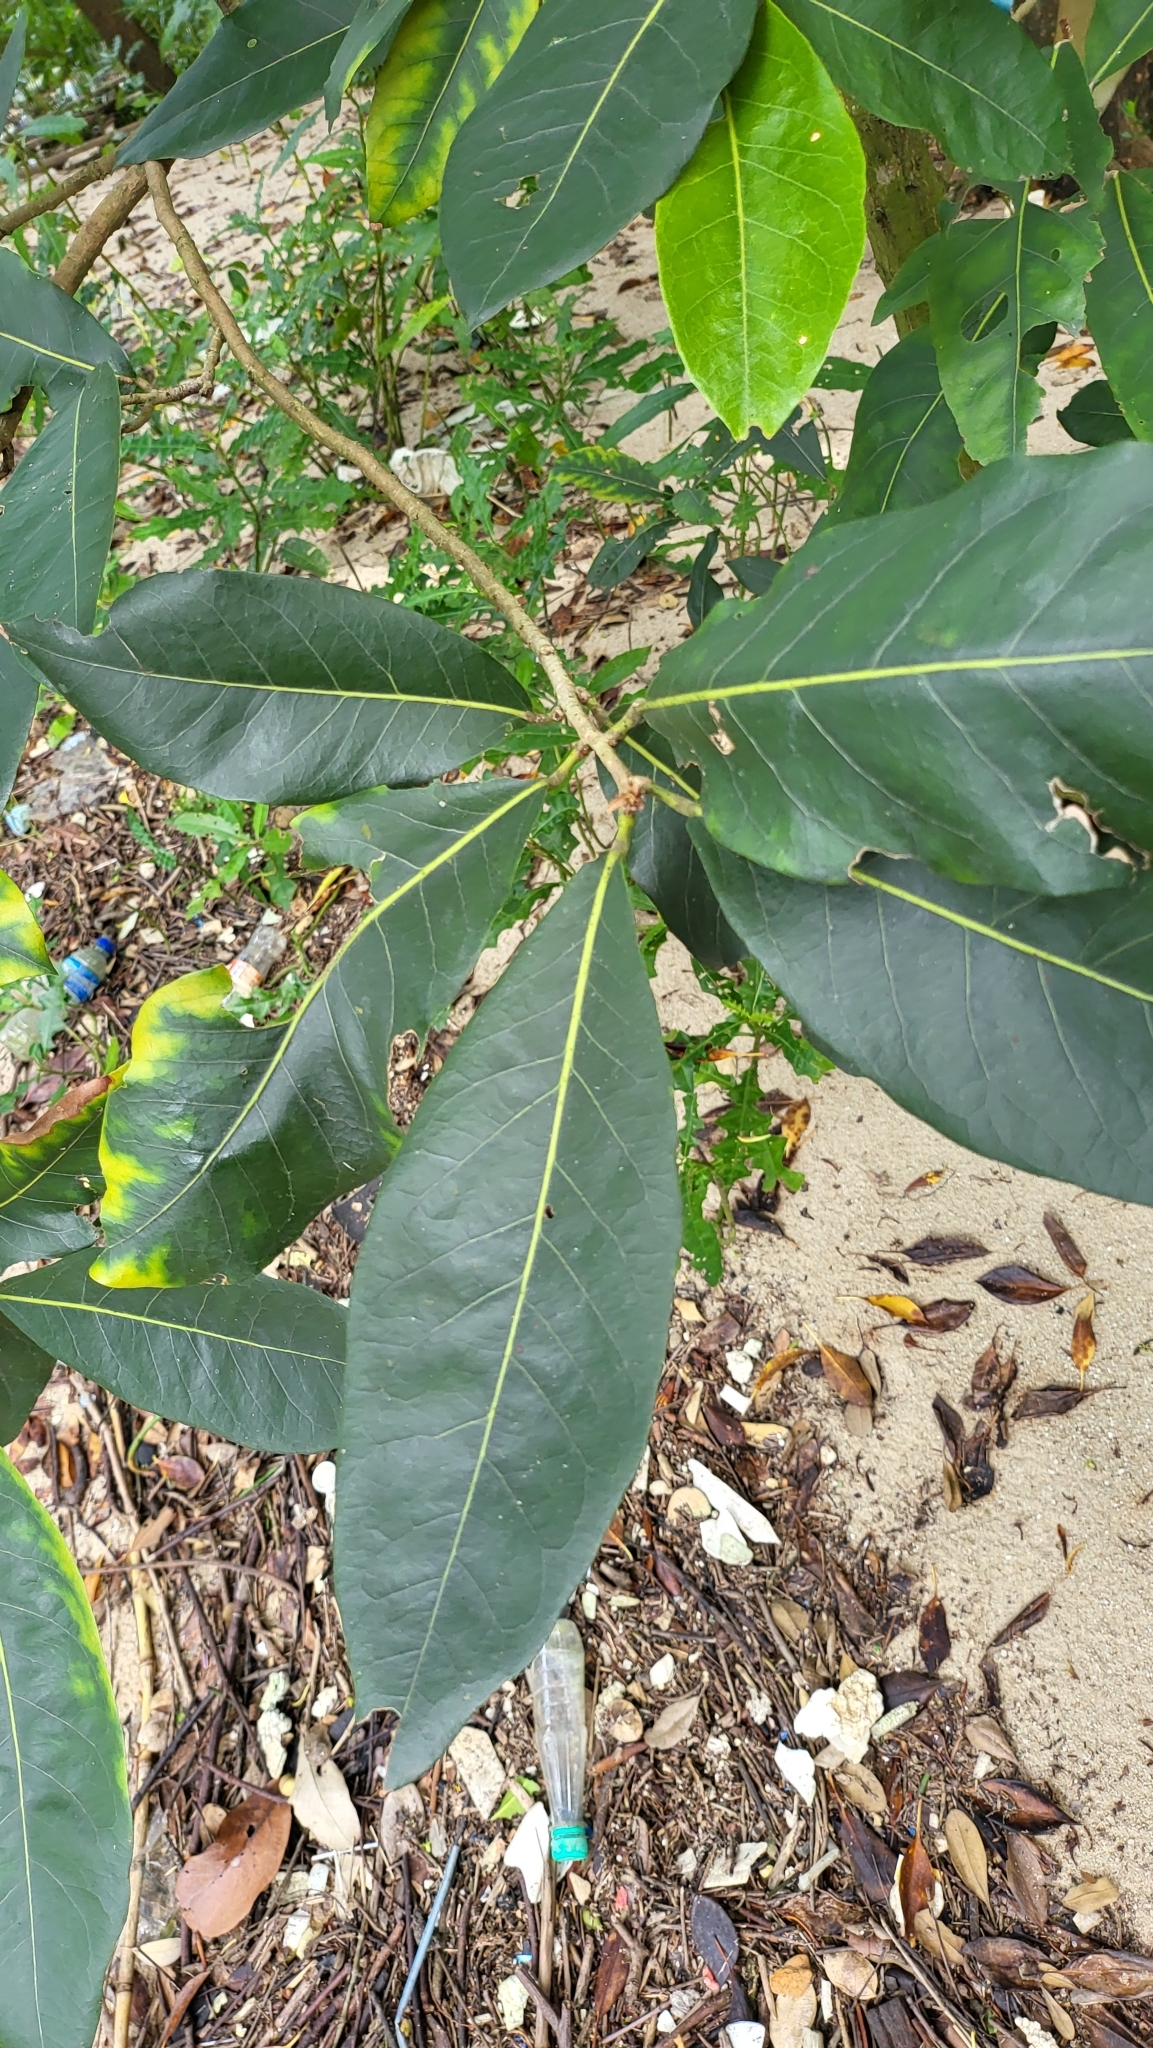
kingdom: Plantae
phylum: Tracheophyta
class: Magnoliopsida
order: Malvales
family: Malvaceae
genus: Heritiera
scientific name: Heritiera littoralis
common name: Looking-glass mangrove
